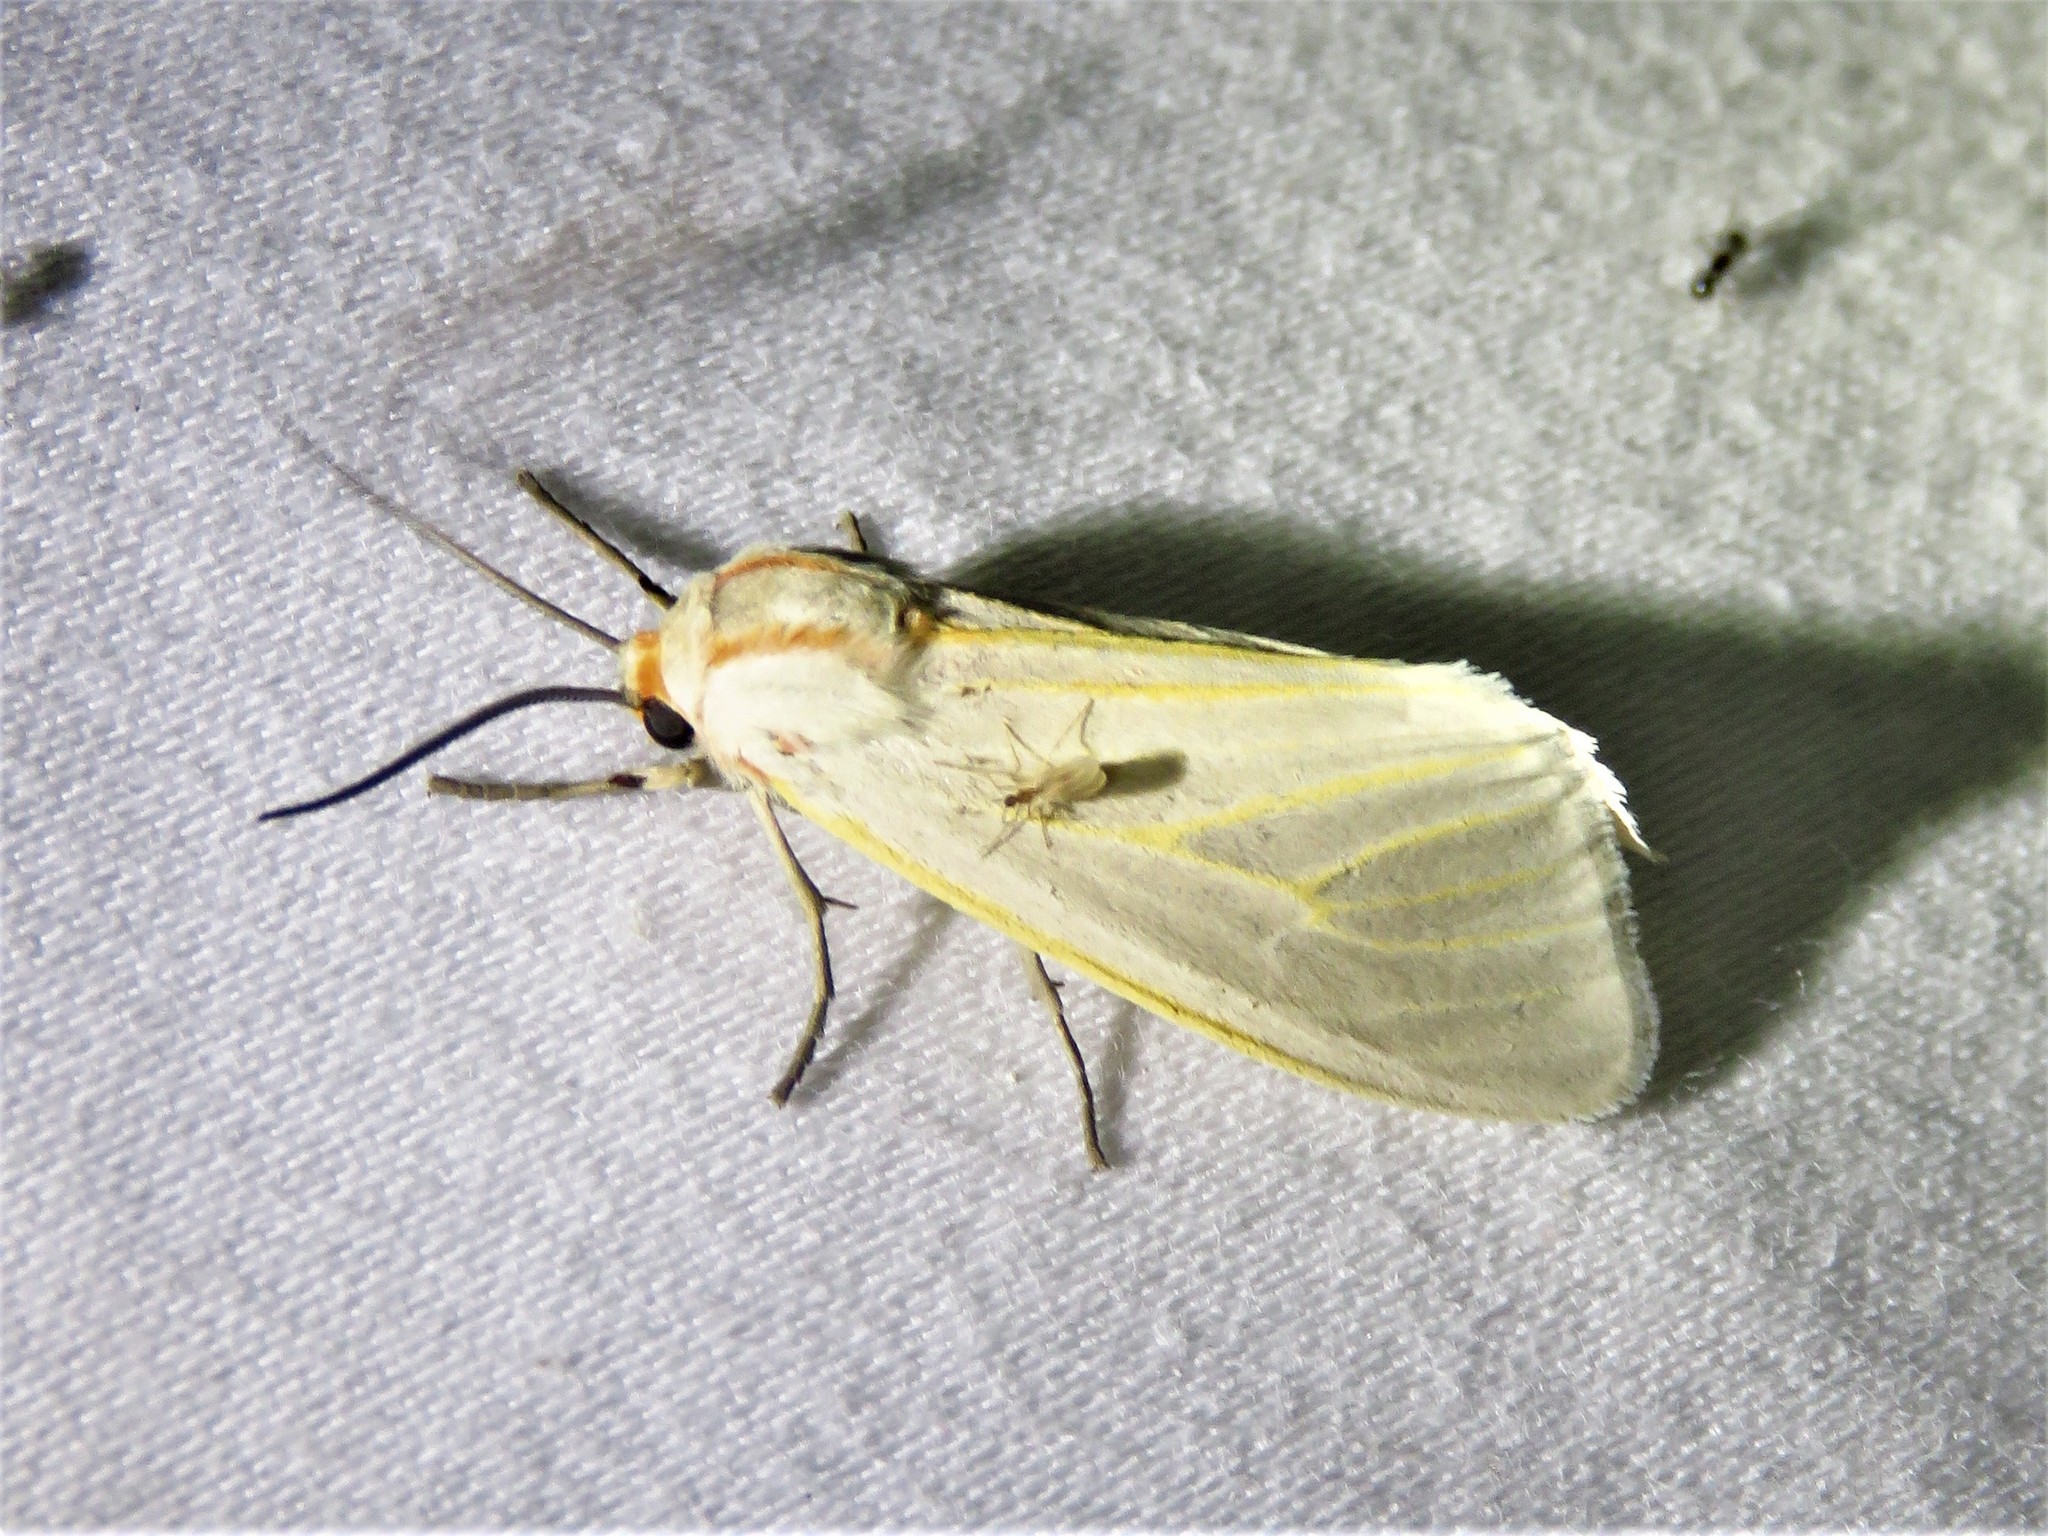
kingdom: Animalia
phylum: Arthropoda
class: Insecta
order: Lepidoptera
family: Erebidae
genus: Pygarctia
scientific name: Pygarctia abdominalis
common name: Yellow-edged pygarctia moth
